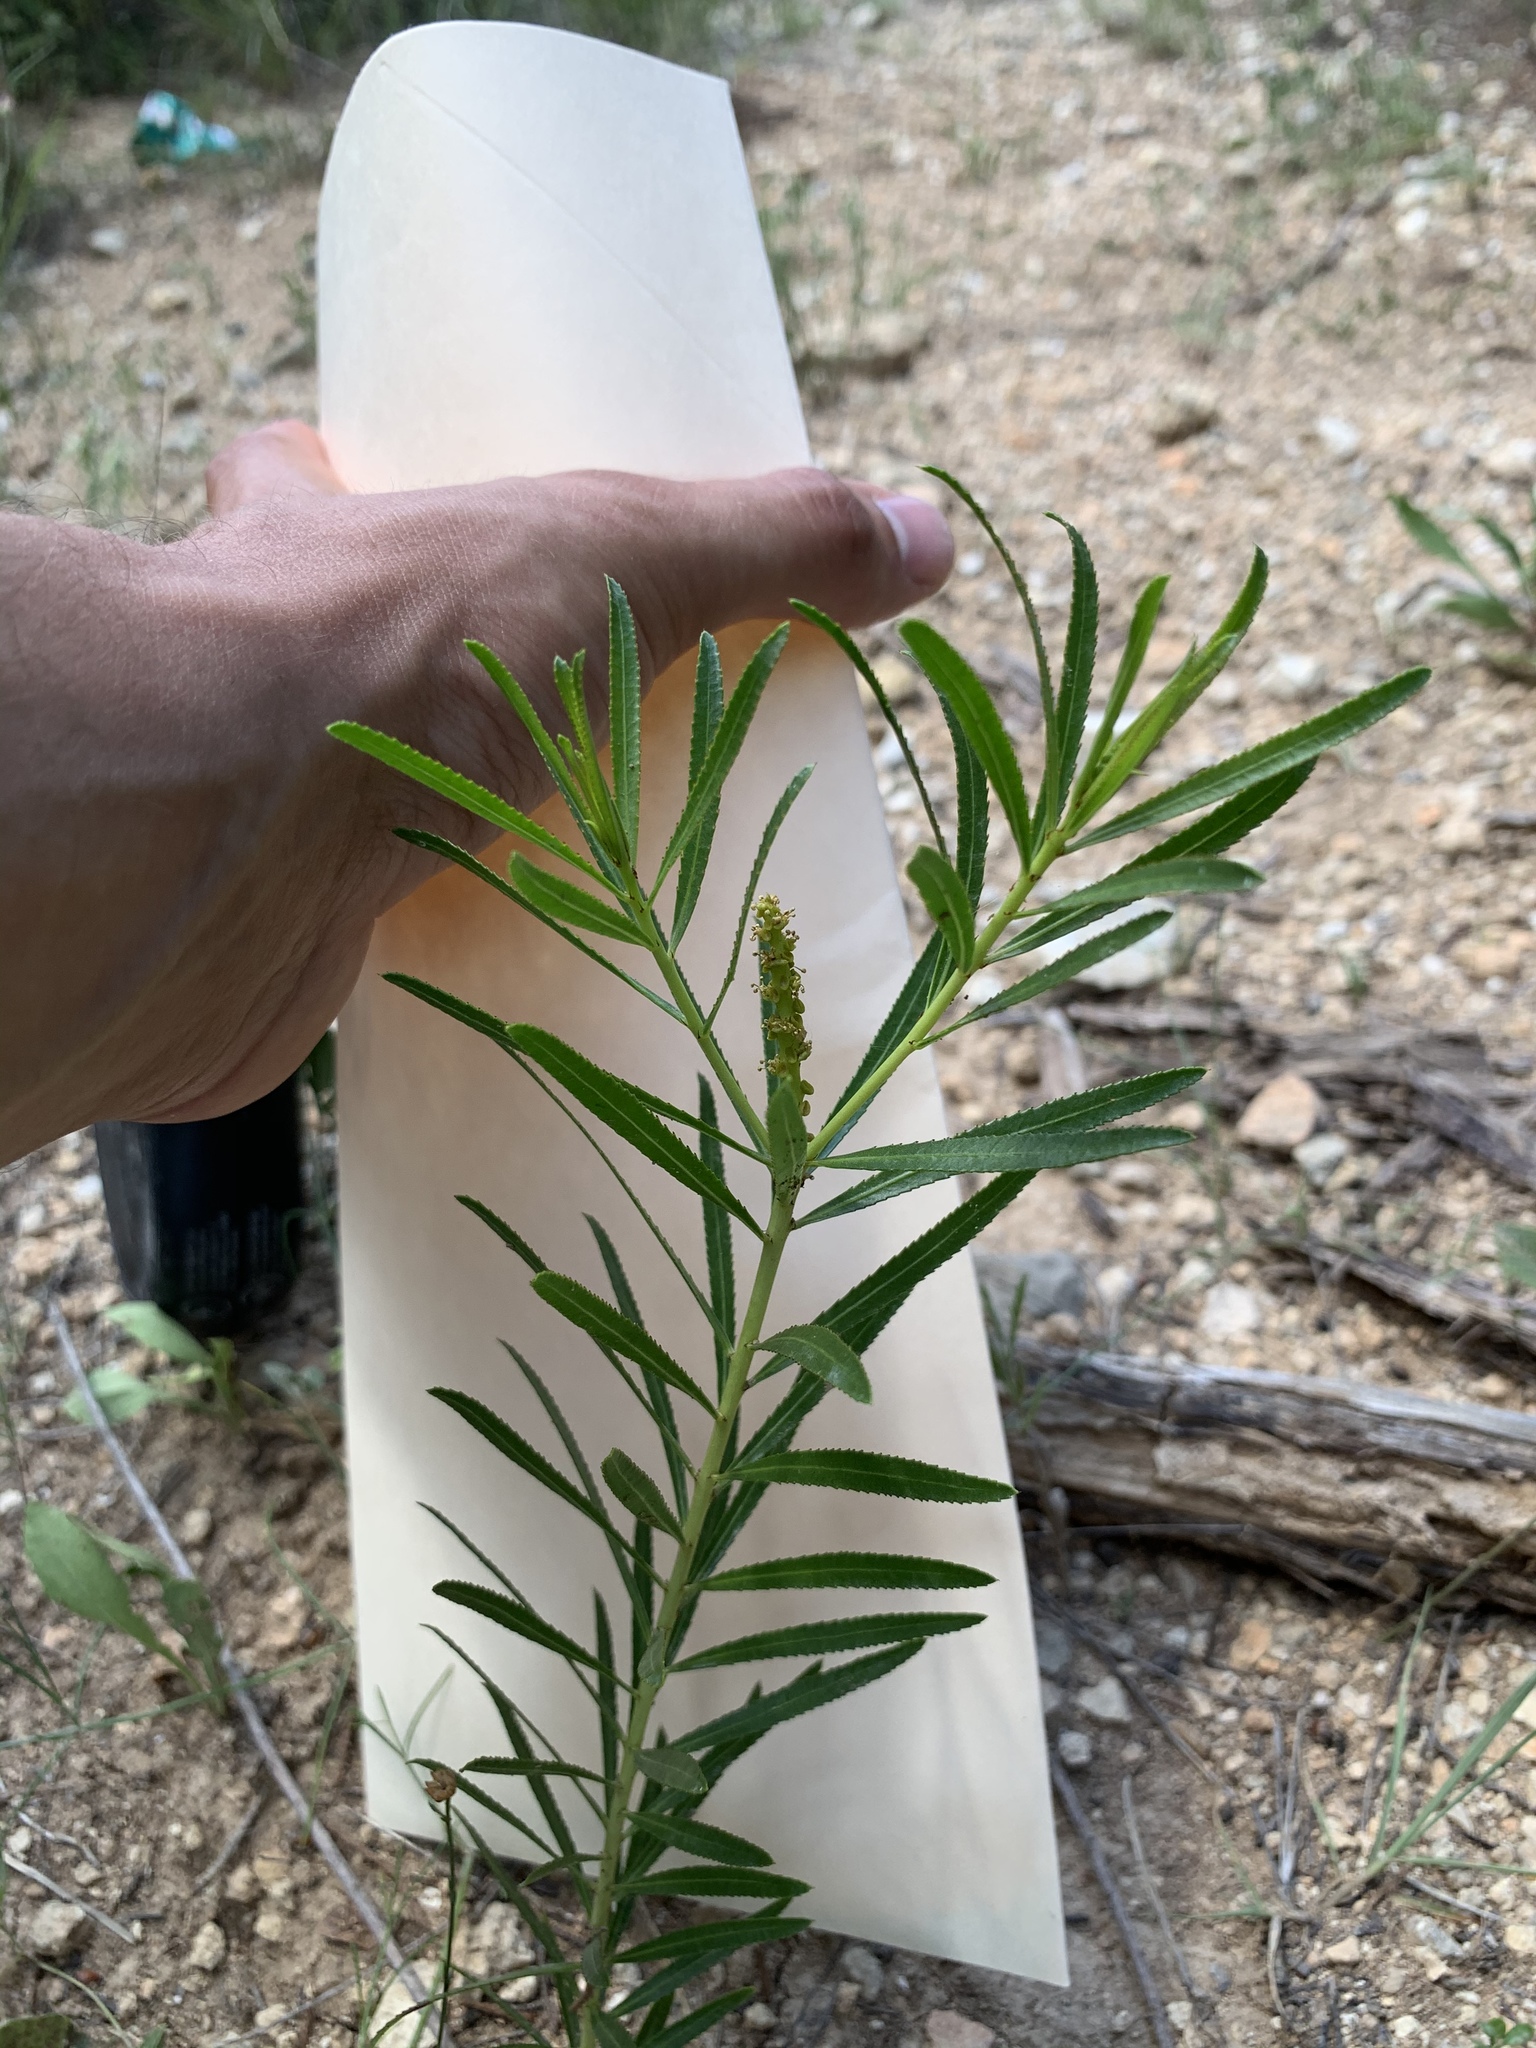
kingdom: Plantae
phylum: Tracheophyta
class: Magnoliopsida
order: Malpighiales
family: Euphorbiaceae
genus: Stillingia
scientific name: Stillingia texana
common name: Texas stillingia
